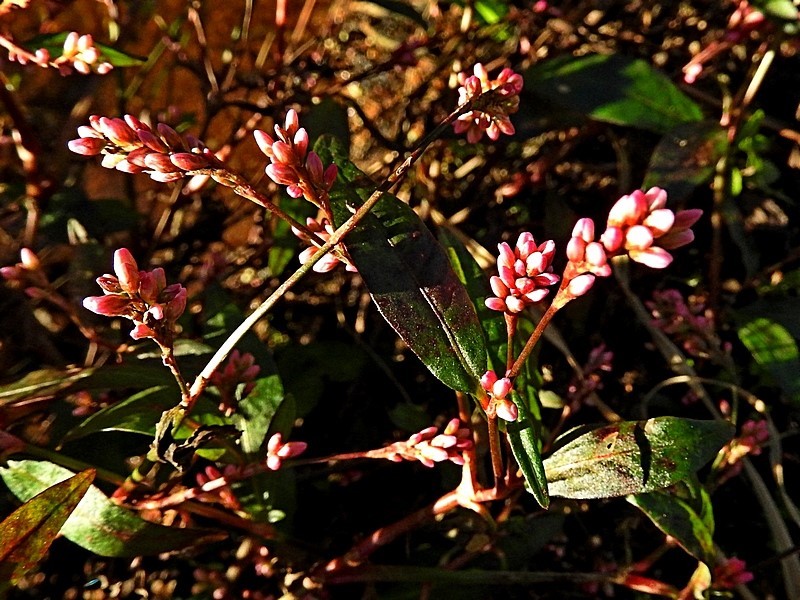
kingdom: Plantae
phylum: Tracheophyta
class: Magnoliopsida
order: Caryophyllales
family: Polygonaceae
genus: Persicaria
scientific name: Persicaria maculosa
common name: Redshank
